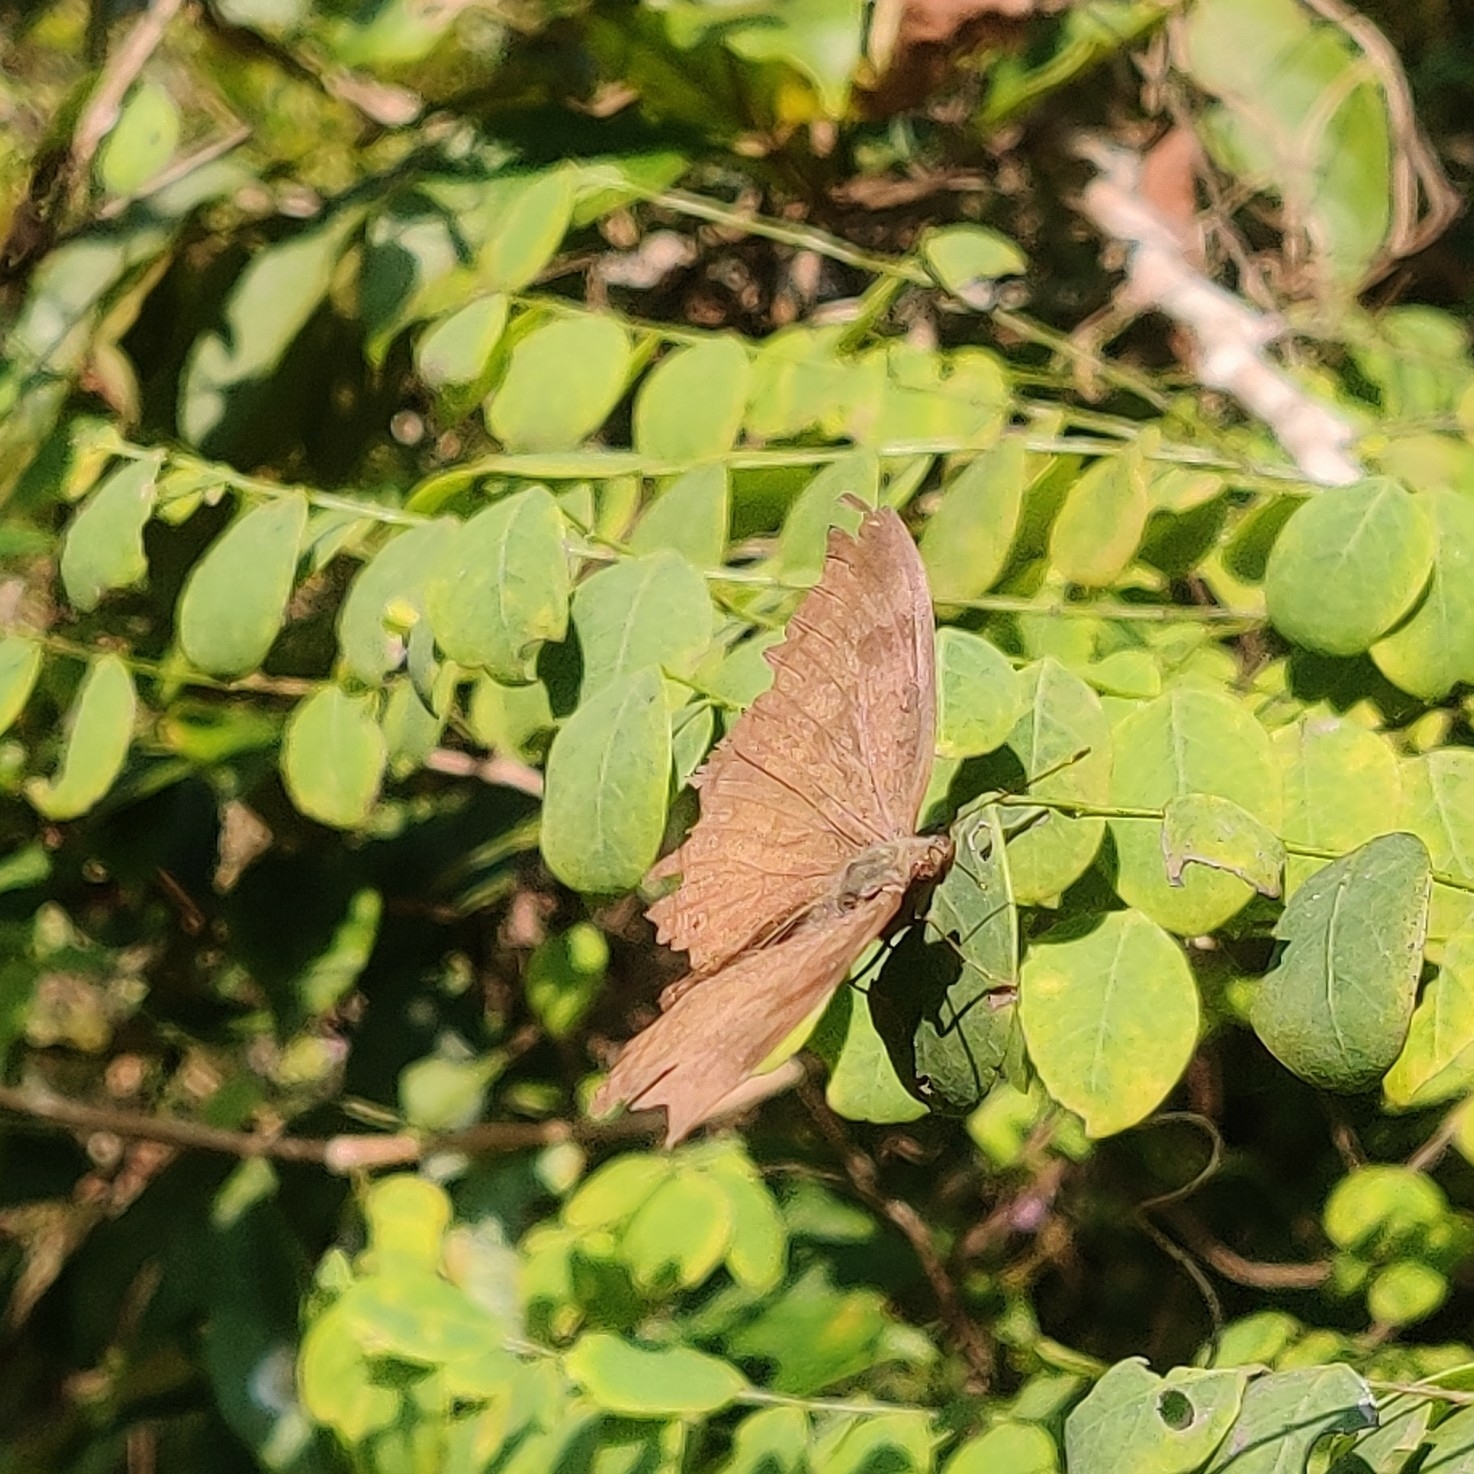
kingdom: Animalia
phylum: Arthropoda
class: Insecta
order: Lepidoptera
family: Nymphalidae
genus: Junonia
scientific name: Junonia iphita
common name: Chocolate pansy
